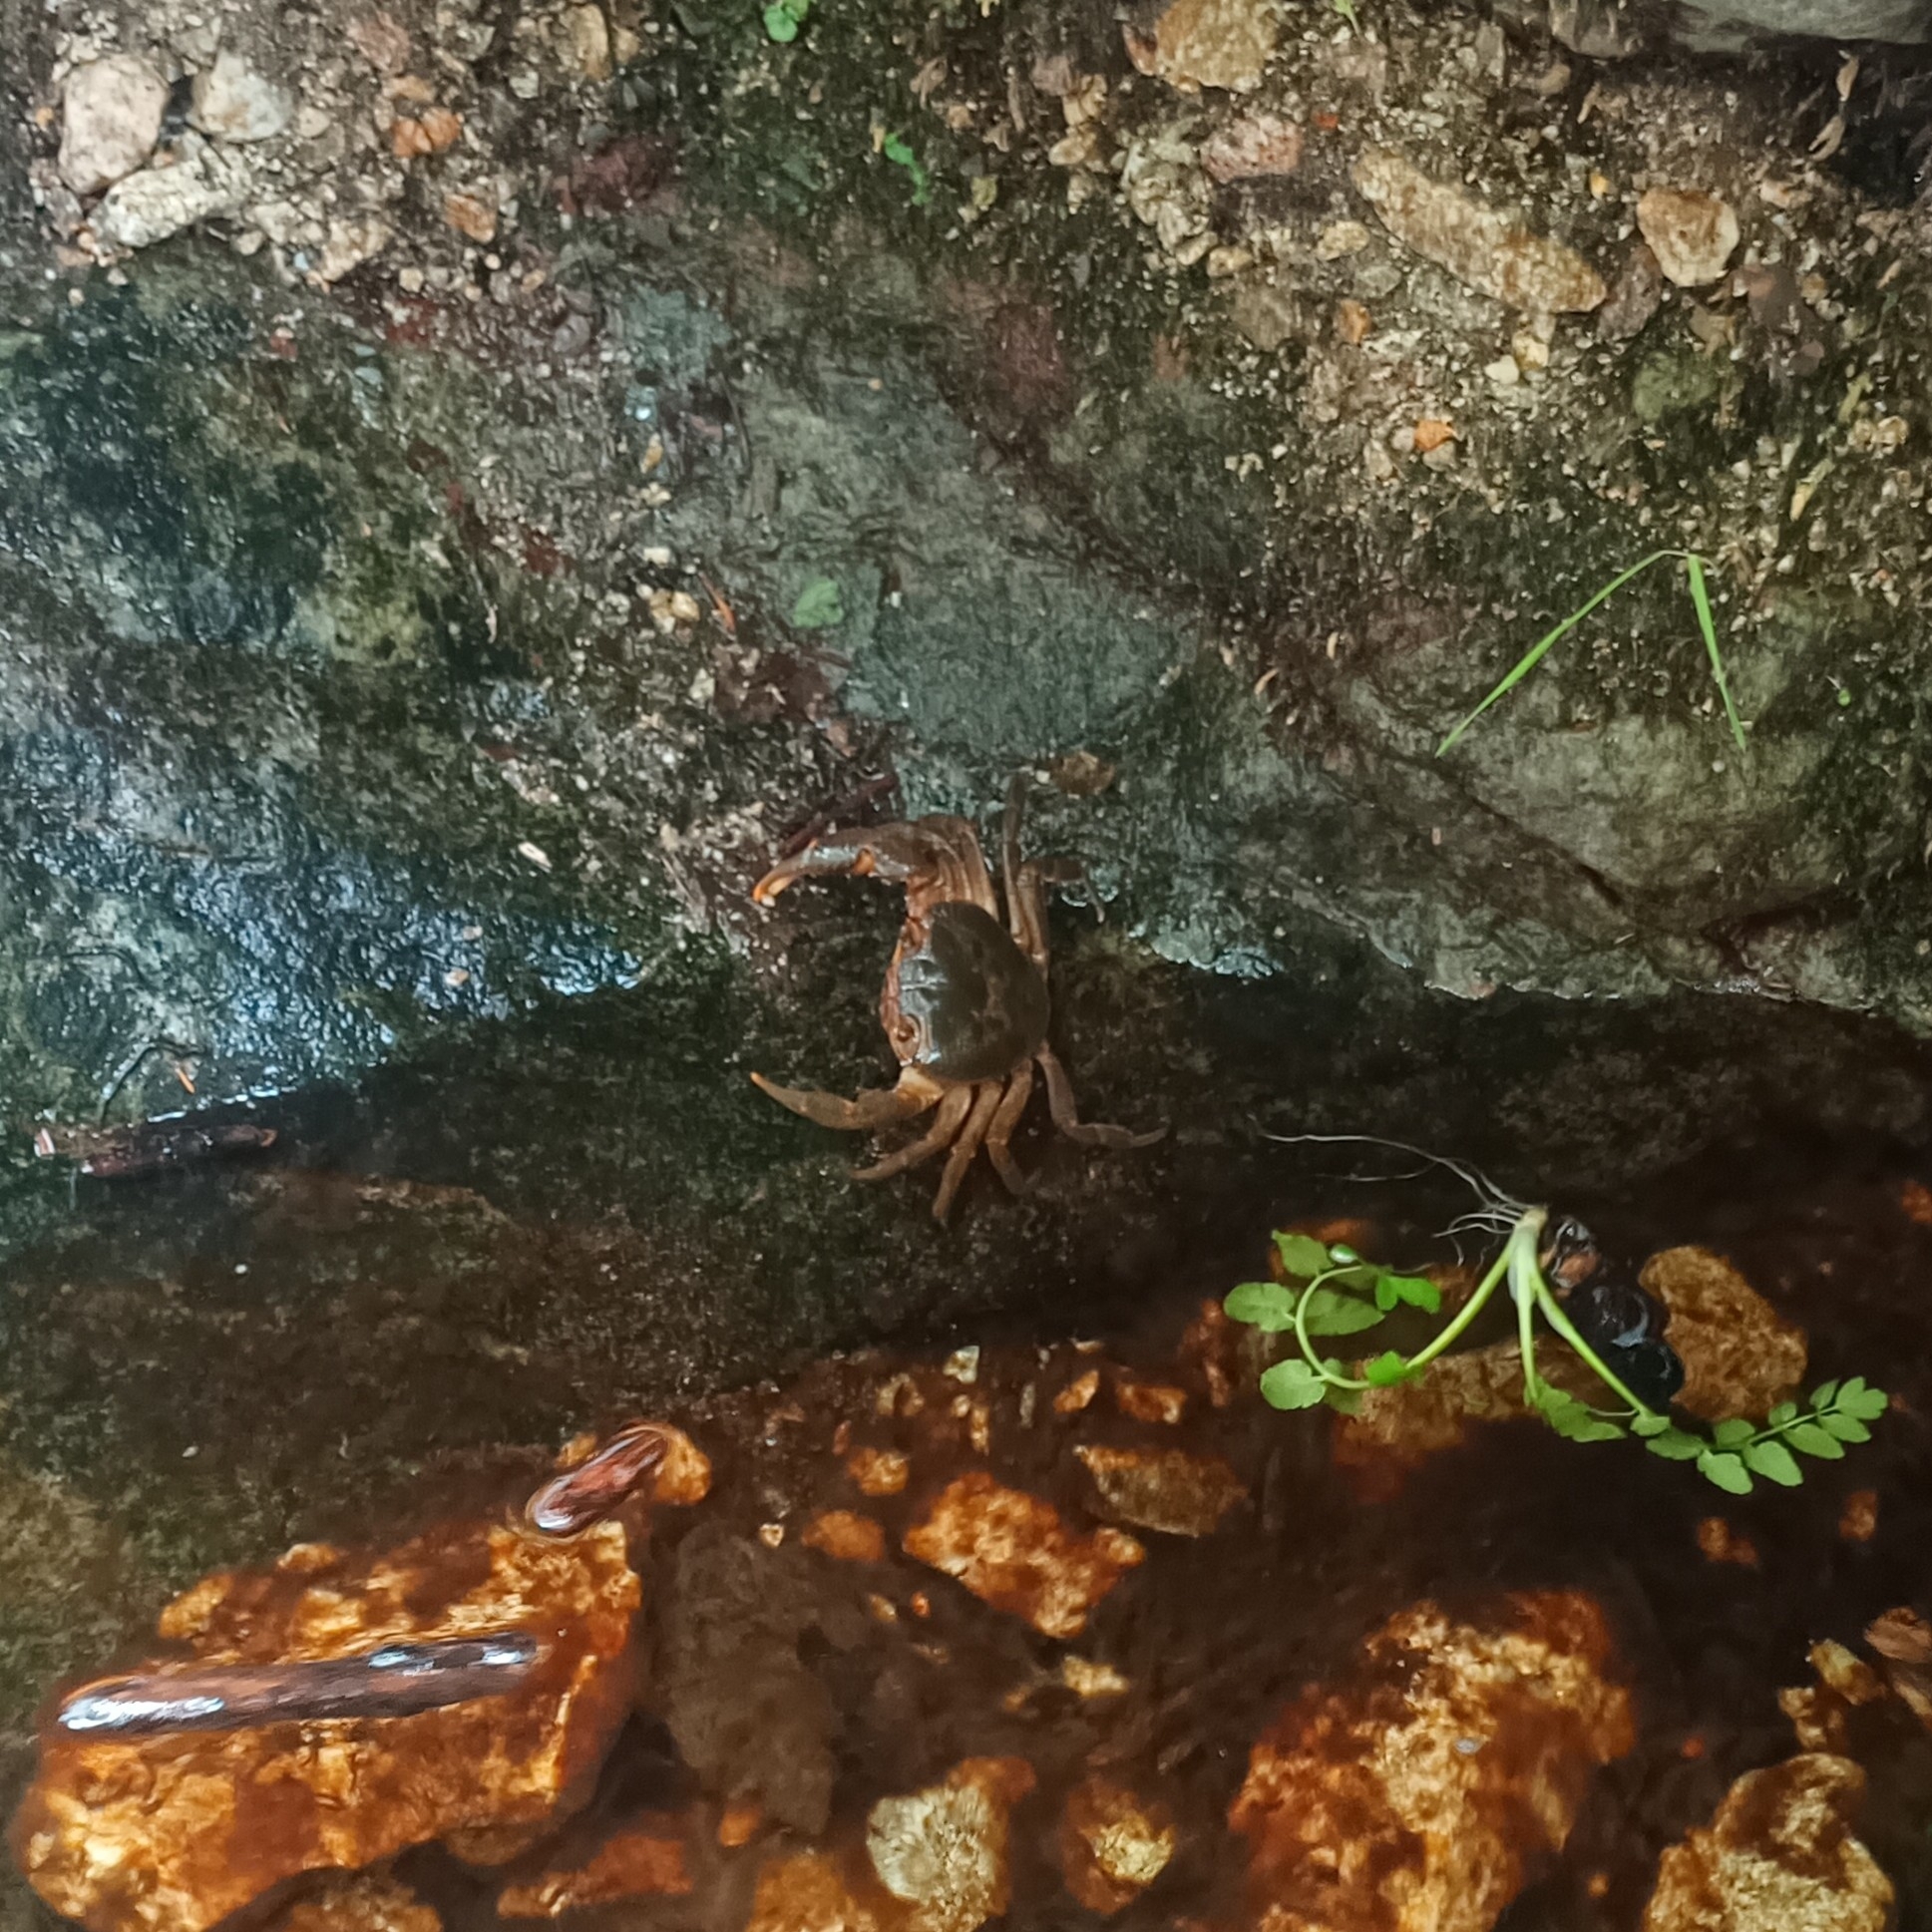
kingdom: Animalia
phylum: Arthropoda
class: Malacostraca
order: Decapoda
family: Potamidae
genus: Potamon
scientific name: Potamon fluviatile
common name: Italian freshwater crab
